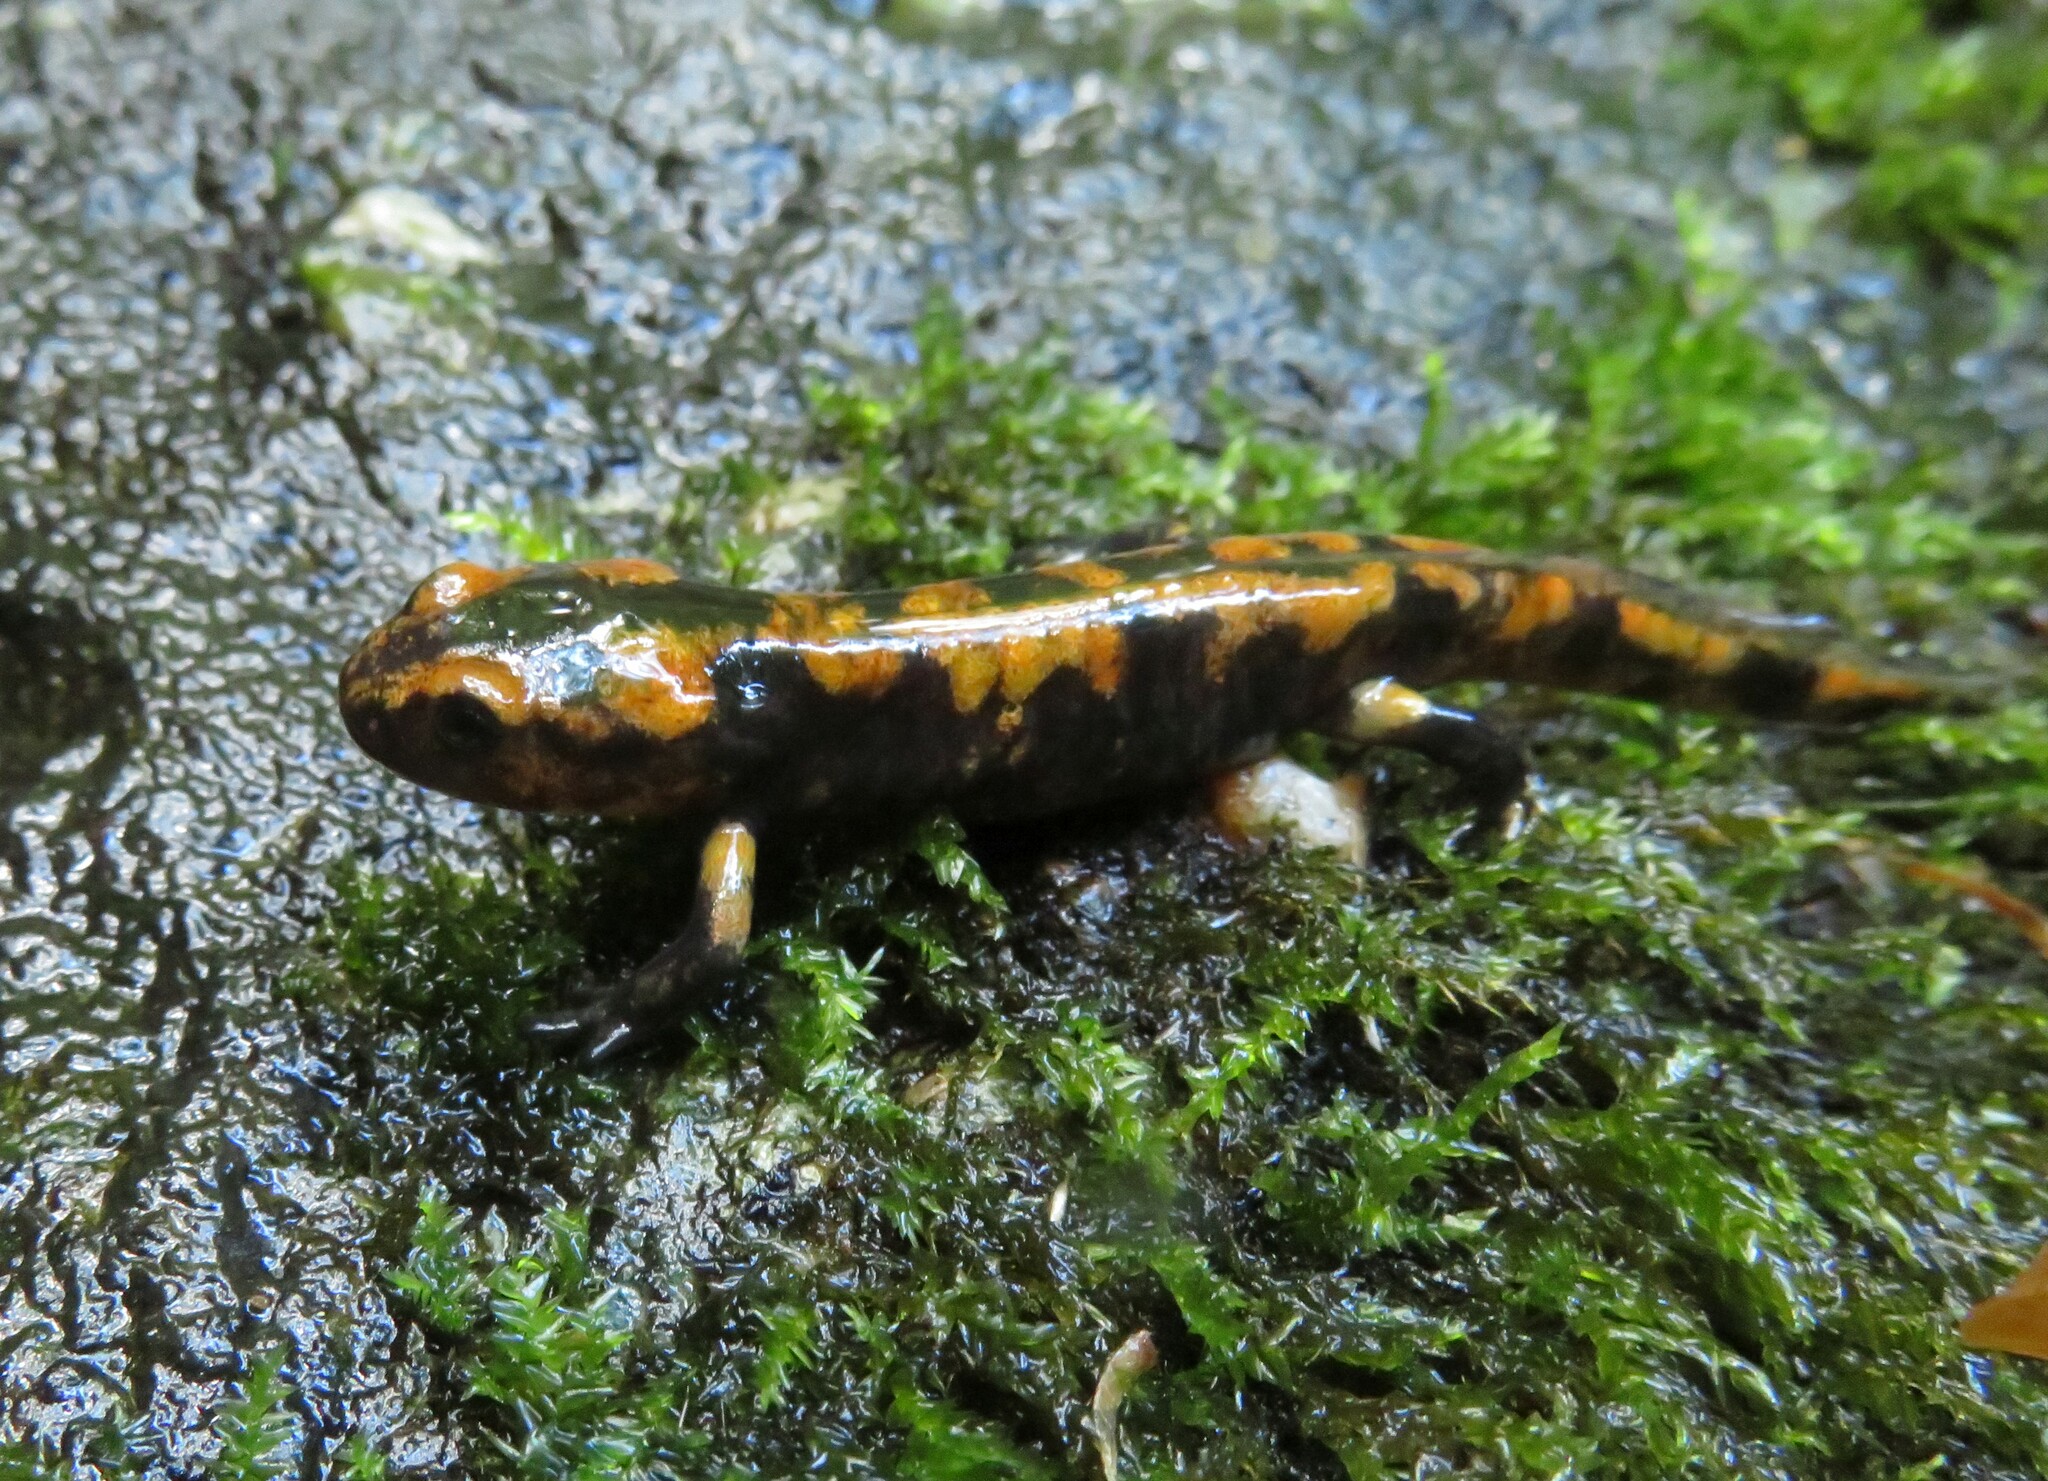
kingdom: Animalia
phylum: Chordata
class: Amphibia
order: Caudata
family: Salamandridae
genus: Salamandra
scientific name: Salamandra salamandra
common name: Fire salamander
